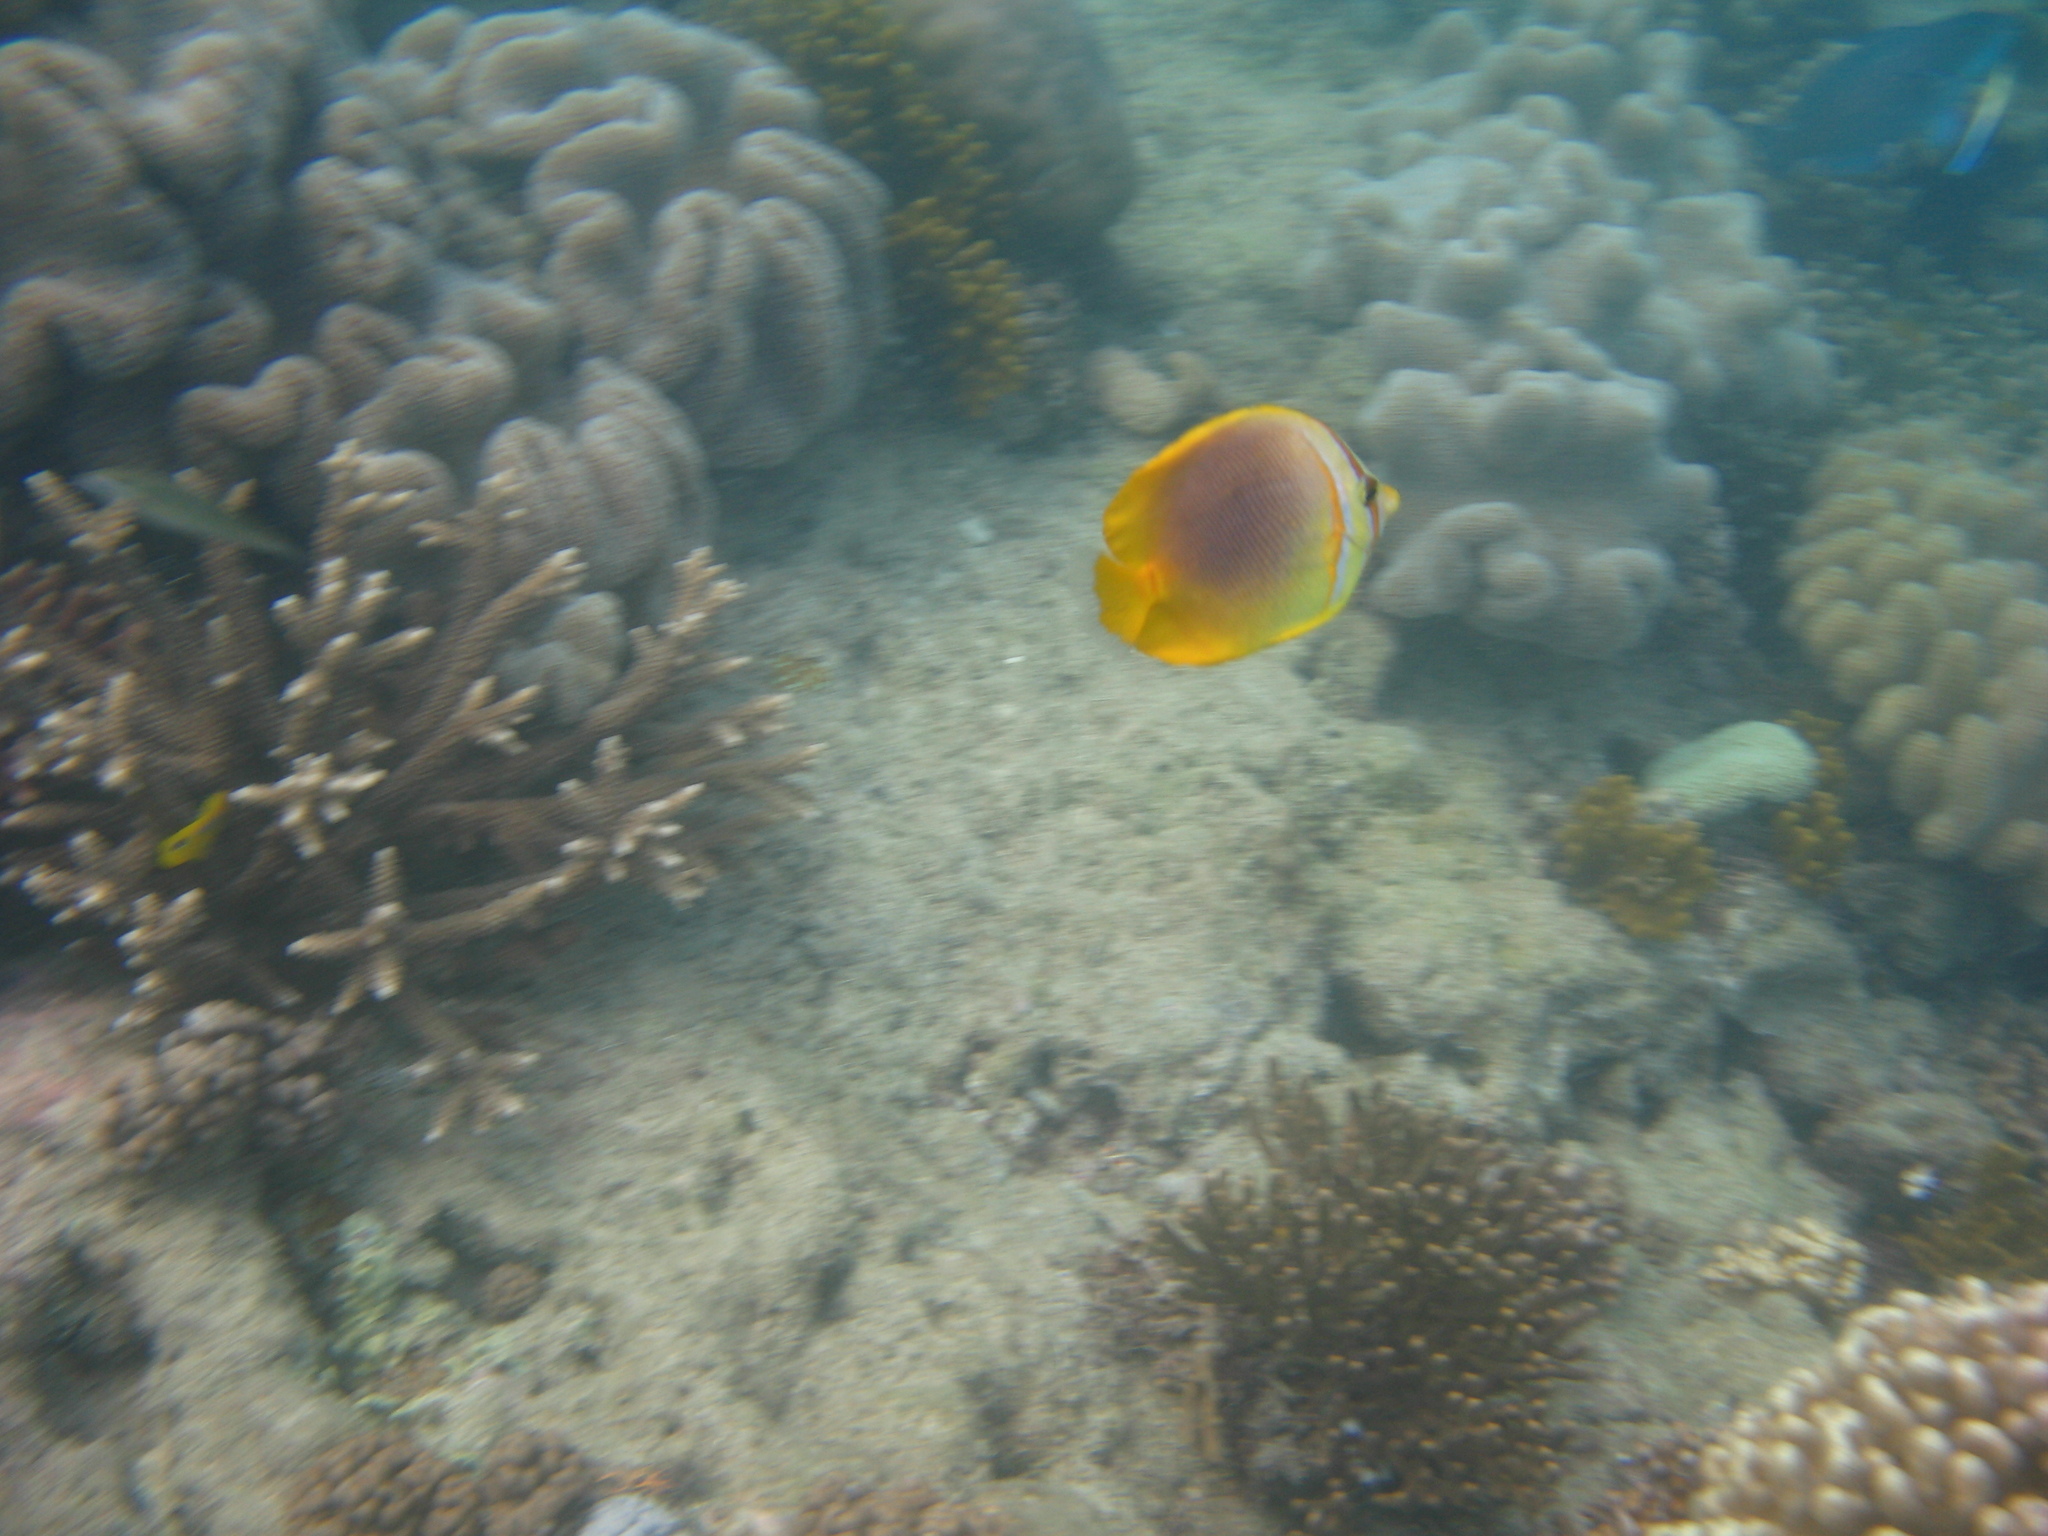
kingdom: Animalia
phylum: Chordata
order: Perciformes
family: Chaetodontidae
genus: Chaetodon
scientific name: Chaetodon aureofasciatus
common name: Golden butterflyfish
